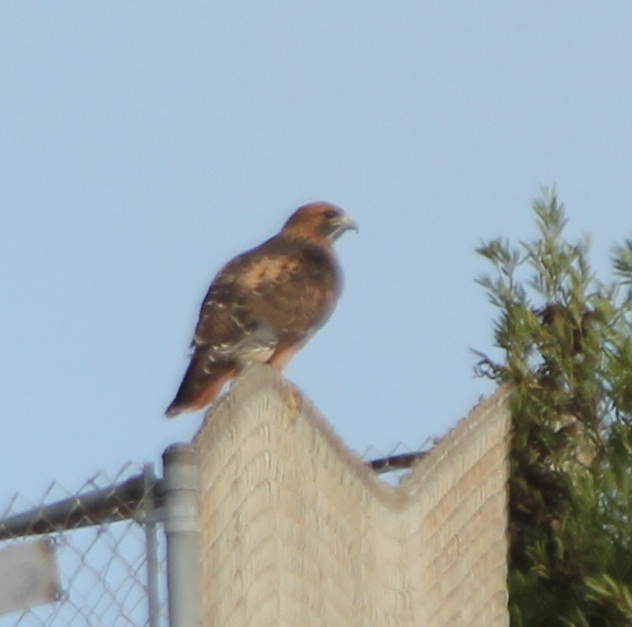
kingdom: Animalia
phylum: Chordata
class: Aves
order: Accipitriformes
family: Accipitridae
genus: Buteo
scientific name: Buteo jamaicensis
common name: Red-tailed hawk
